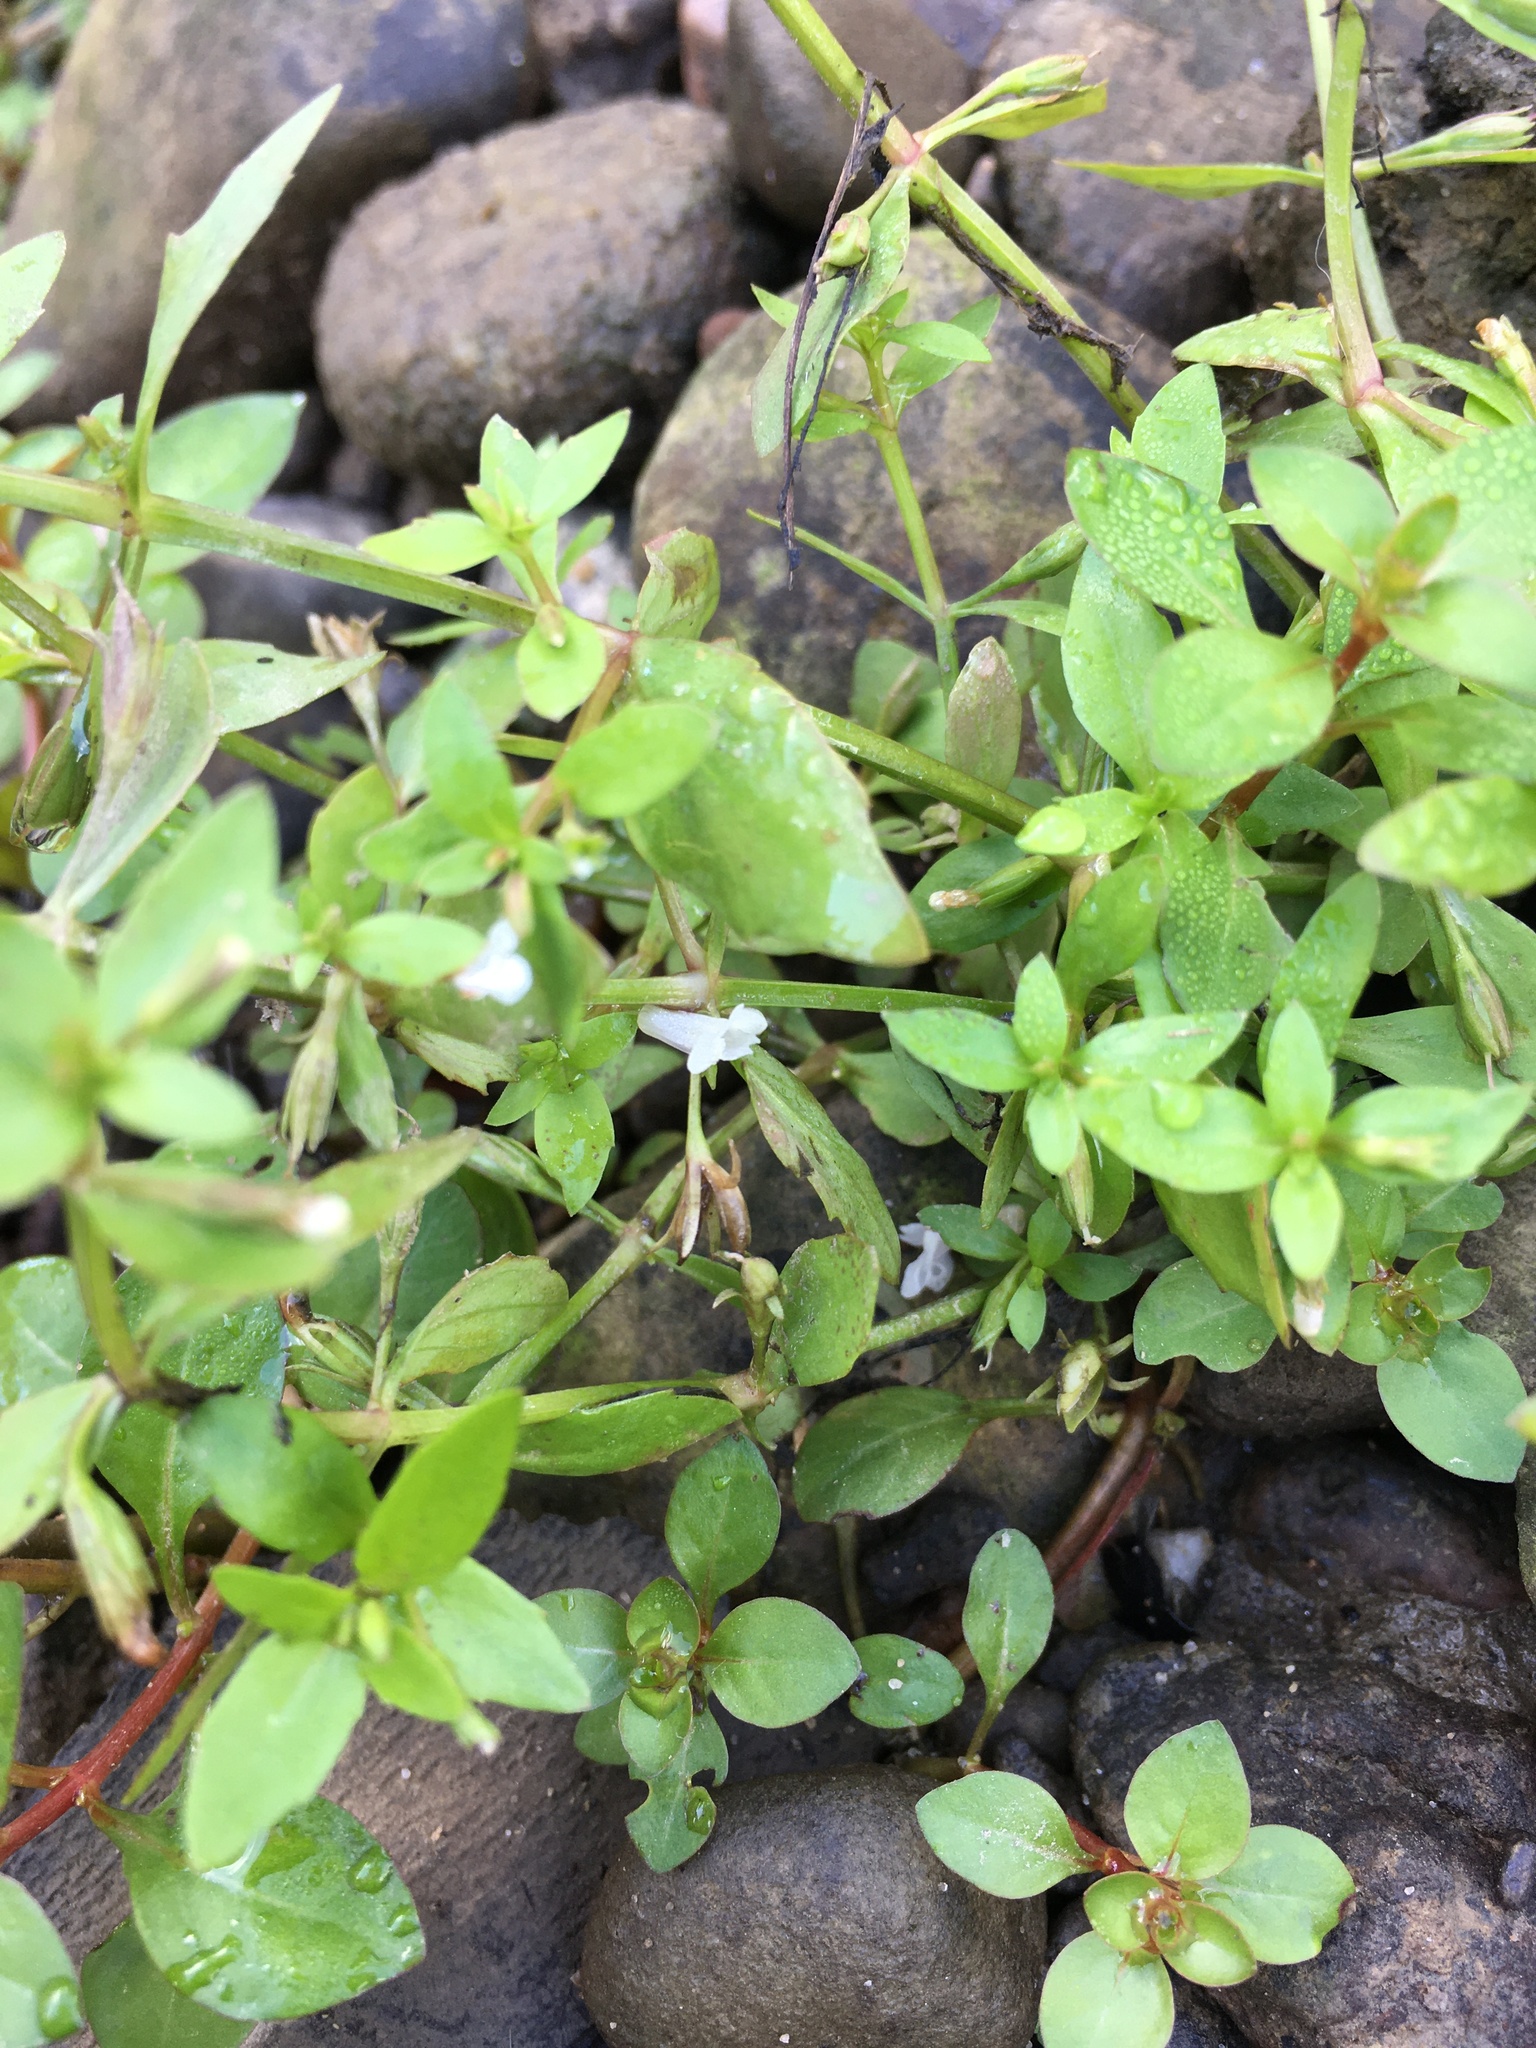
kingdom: Plantae
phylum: Tracheophyta
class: Magnoliopsida
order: Lamiales
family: Linderniaceae
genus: Lindernia
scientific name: Lindernia dubia
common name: Annual false pimpernel
